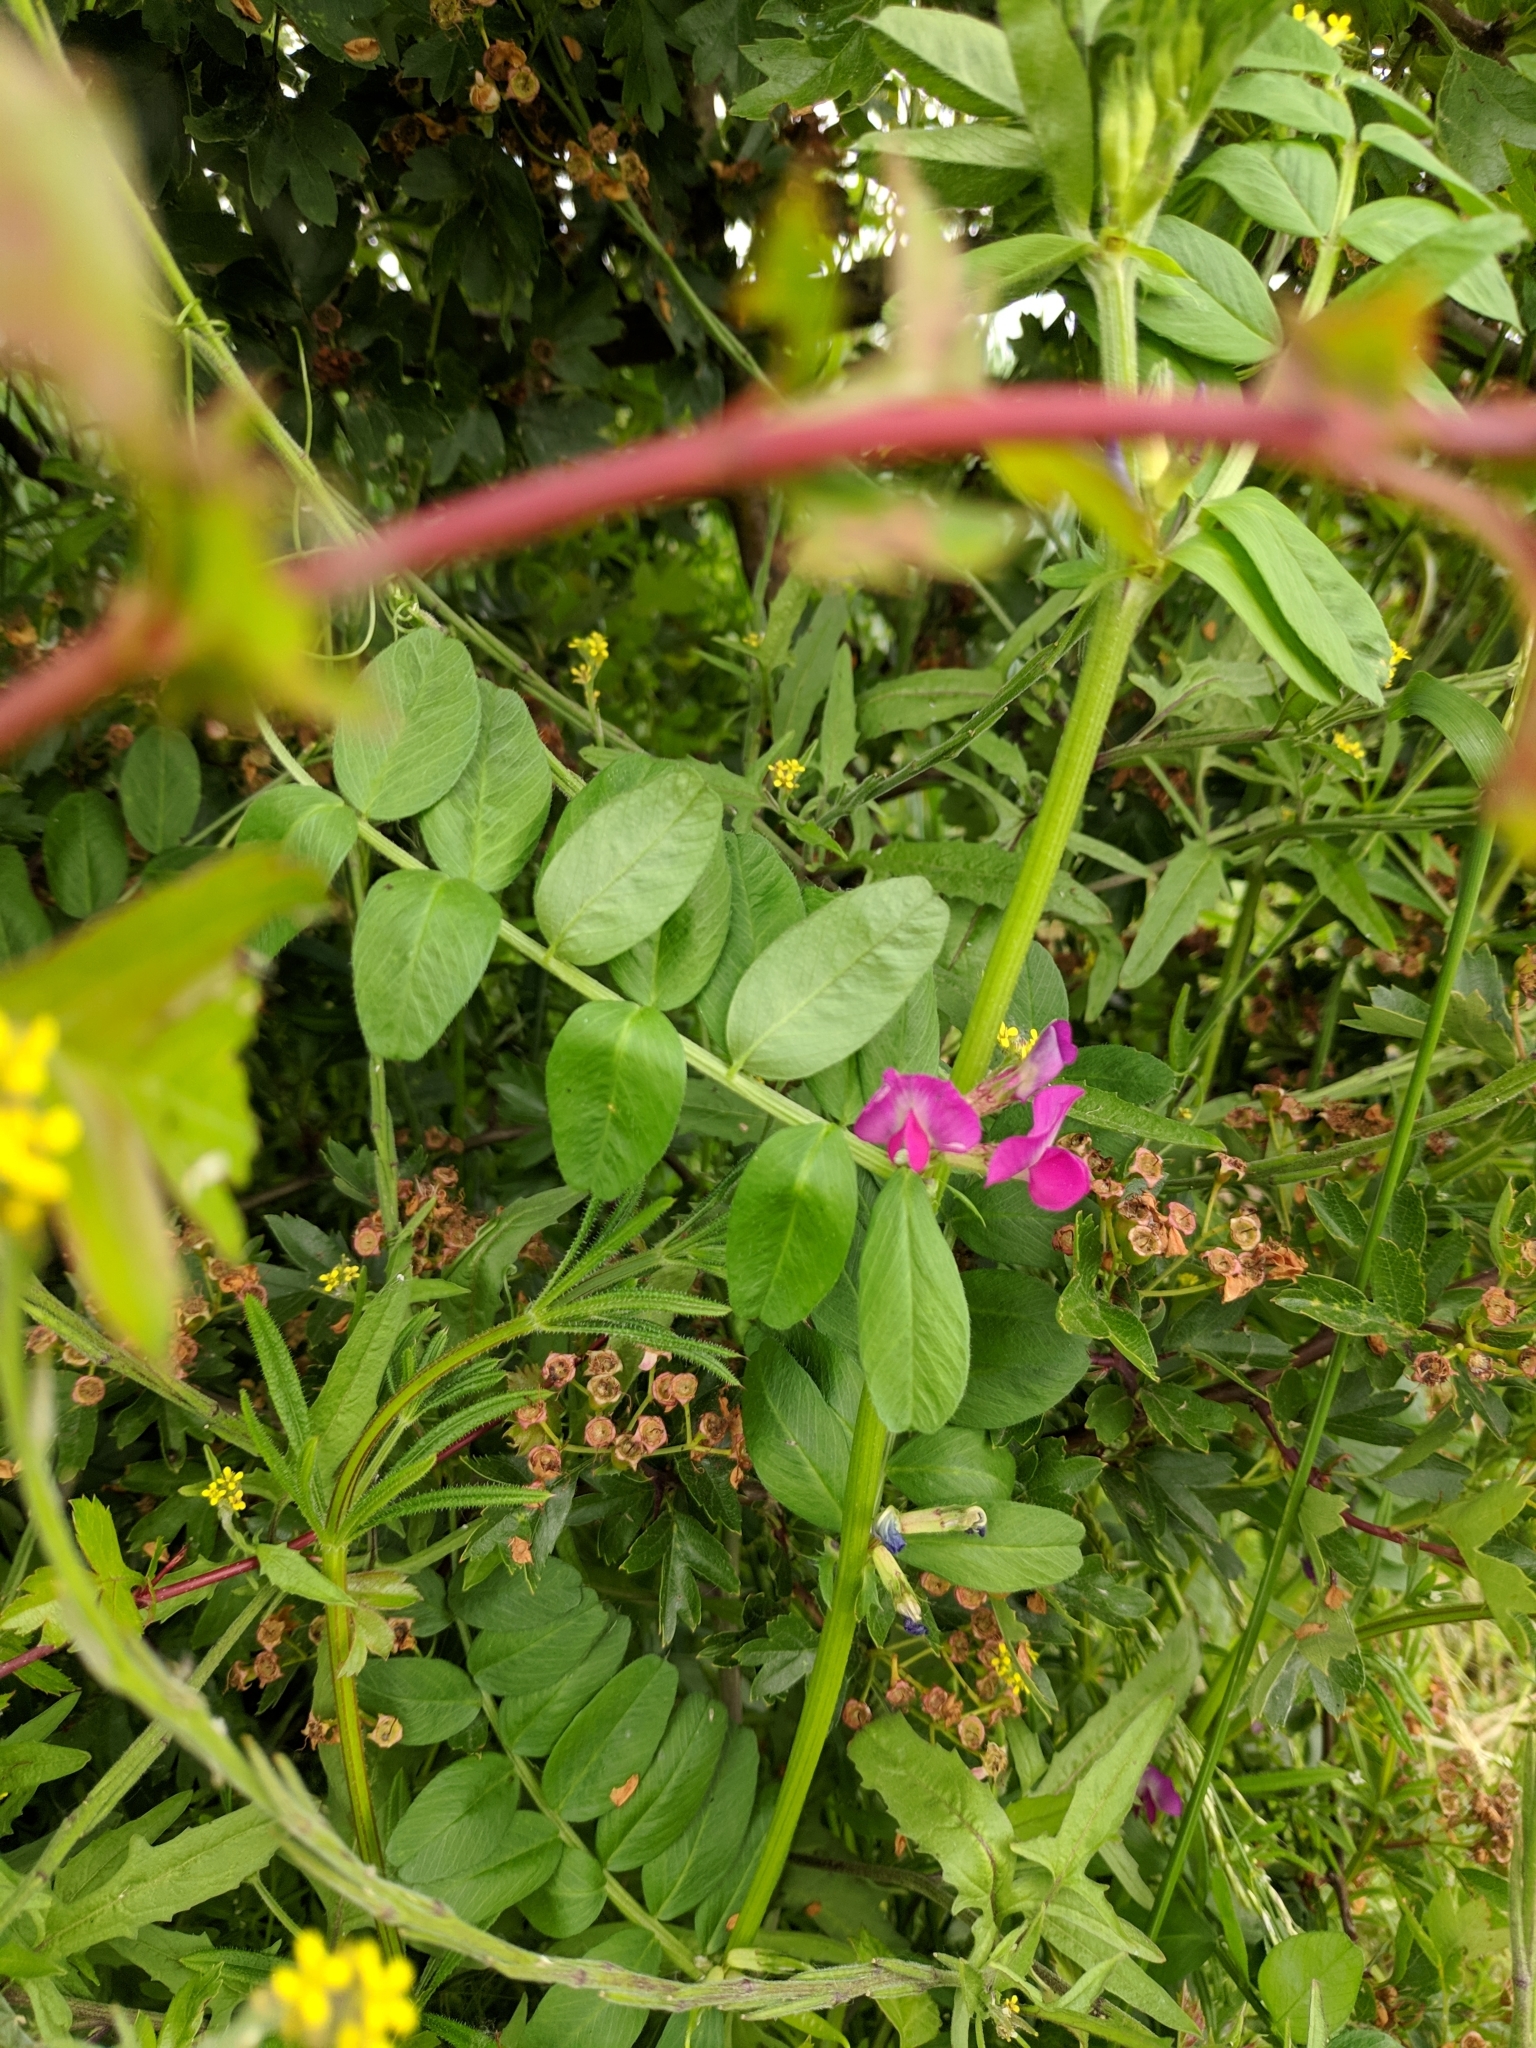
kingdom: Plantae
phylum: Tracheophyta
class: Magnoliopsida
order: Fabales
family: Fabaceae
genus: Vicia
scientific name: Vicia sativa
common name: Garden vetch
